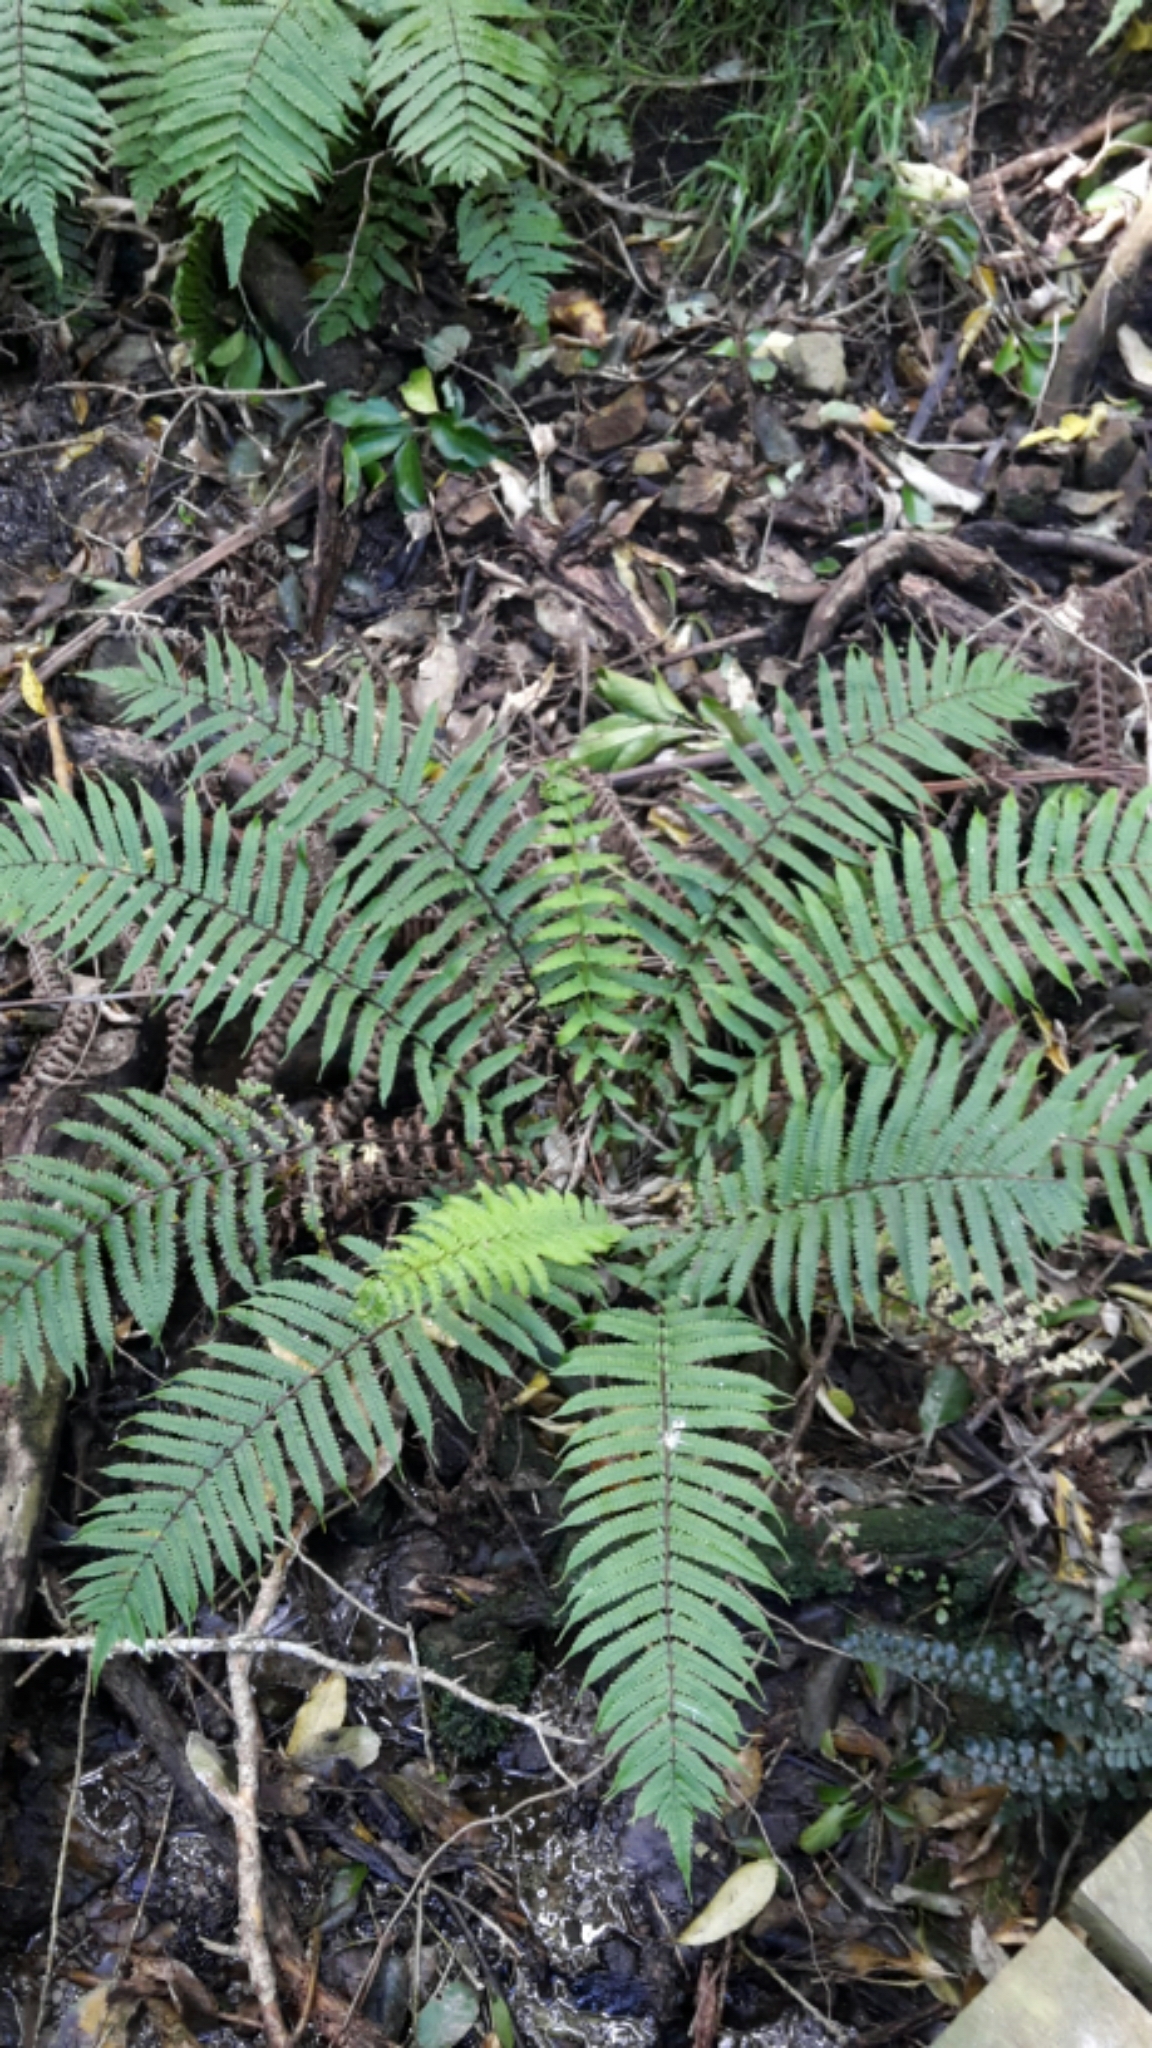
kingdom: Plantae
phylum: Tracheophyta
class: Polypodiopsida
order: Polypodiales
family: Thelypteridaceae
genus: Pakau
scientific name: Pakau pennigera
